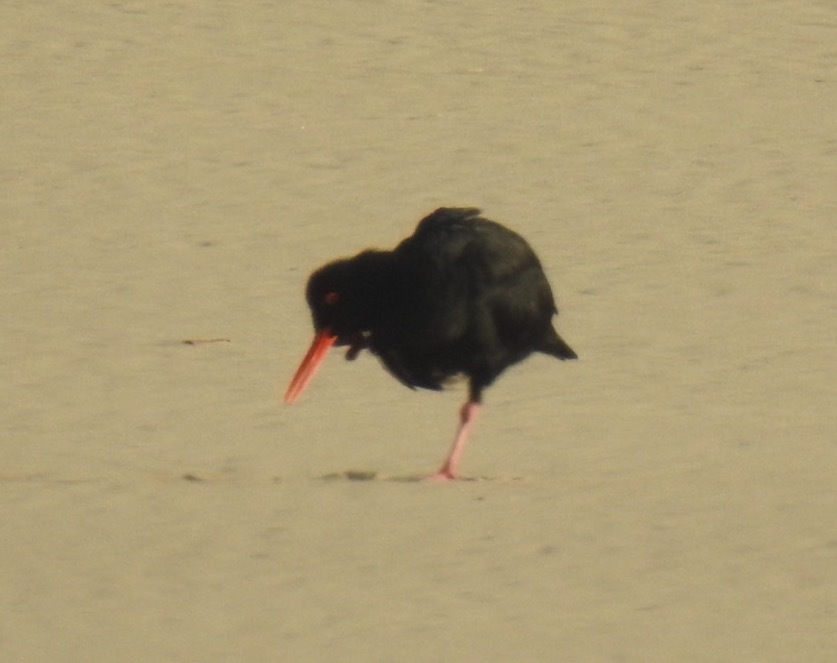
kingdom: Animalia
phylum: Chordata
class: Aves
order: Charadriiformes
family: Haematopodidae
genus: Haematopus
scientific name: Haematopus moquini
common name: African oystercatcher
